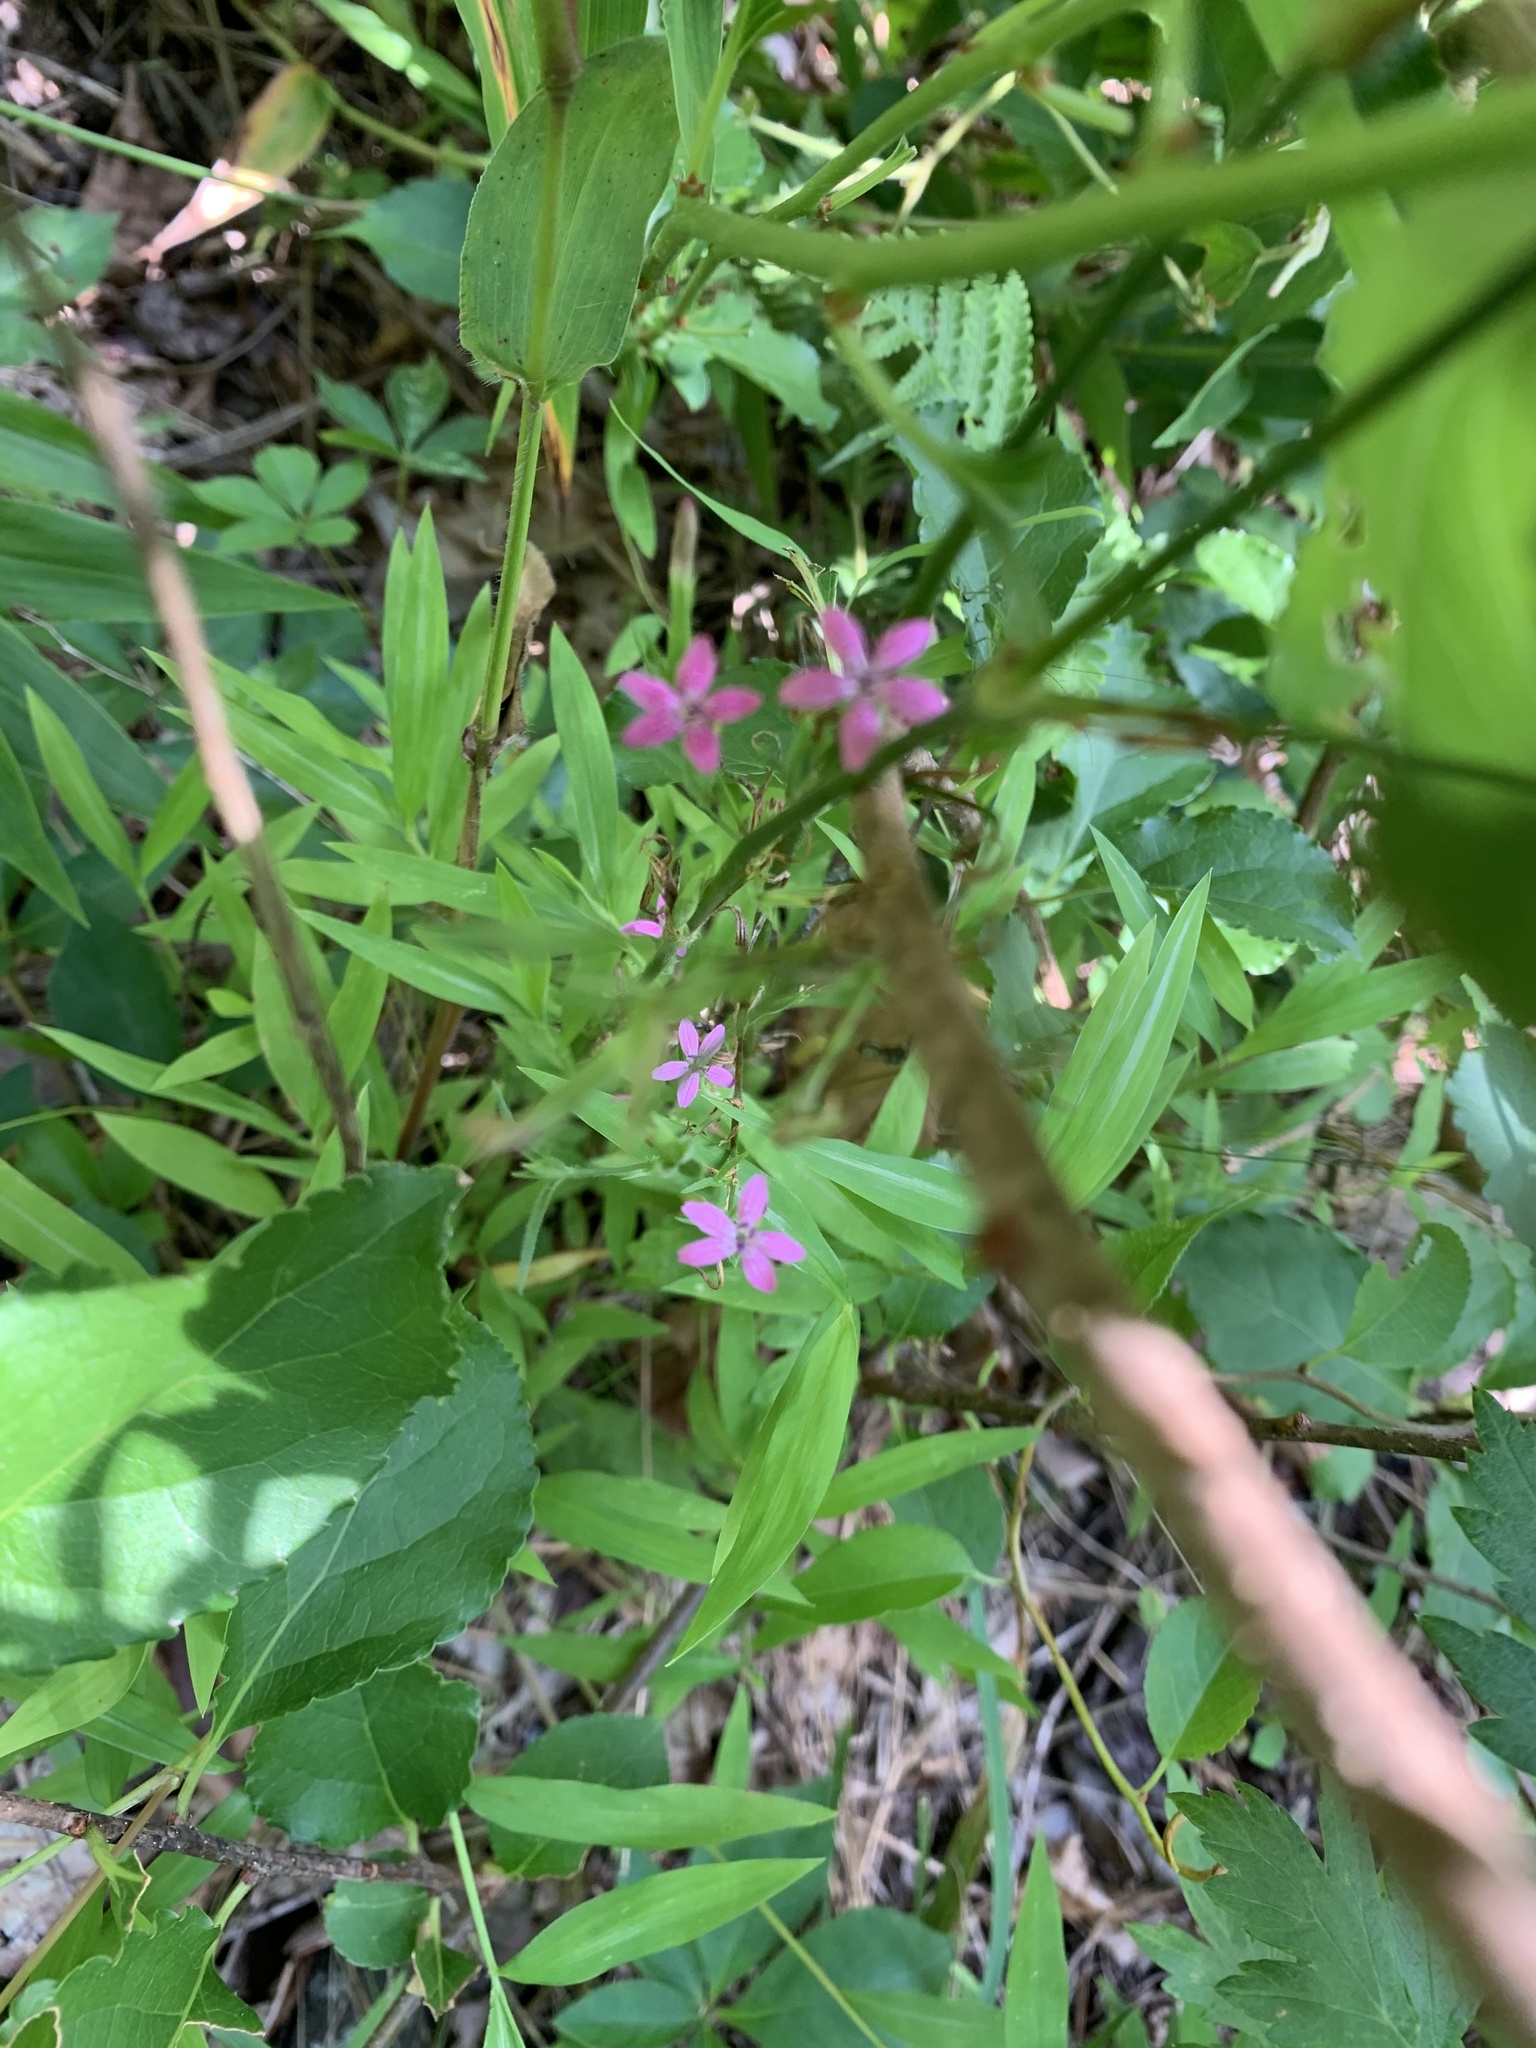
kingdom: Plantae
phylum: Tracheophyta
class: Magnoliopsida
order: Caryophyllales
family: Caryophyllaceae
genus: Dianthus
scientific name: Dianthus armeria
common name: Deptford pink
